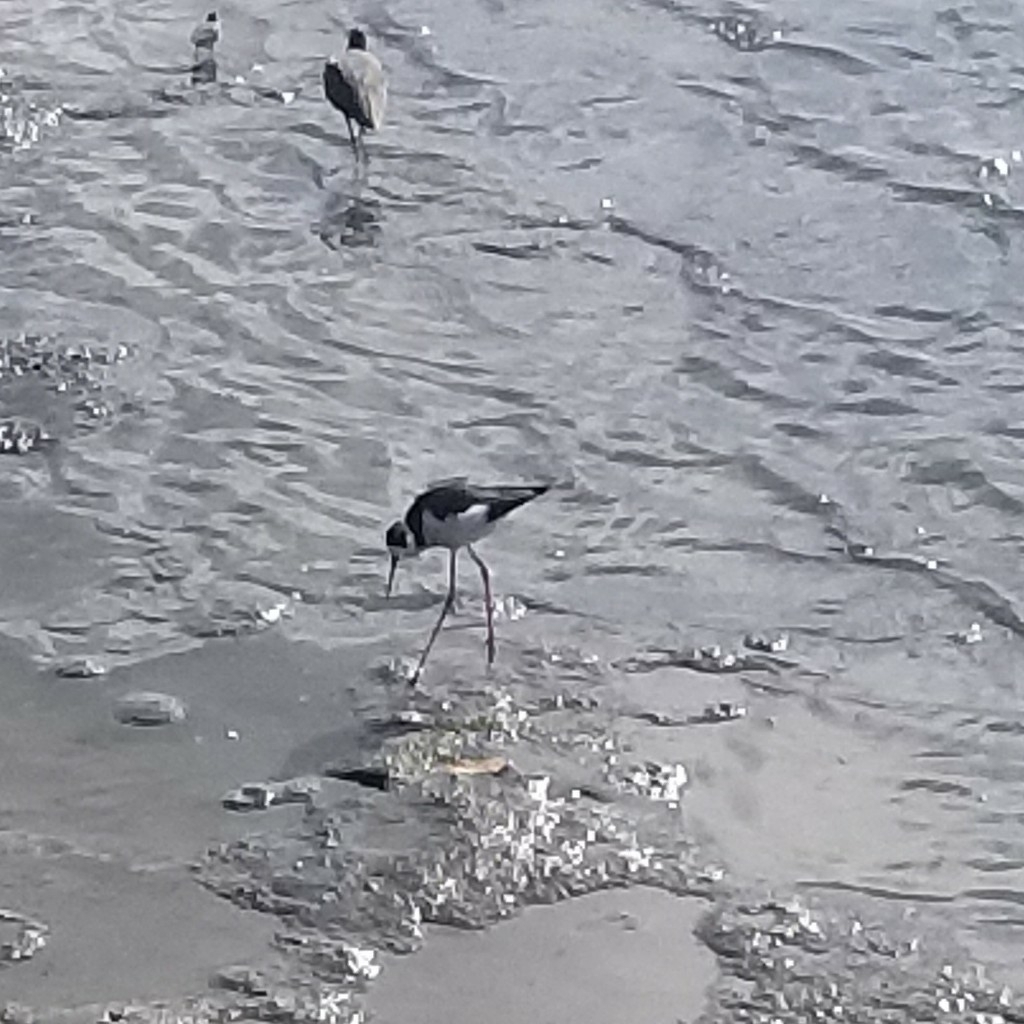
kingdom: Animalia
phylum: Chordata
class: Aves
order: Charadriiformes
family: Recurvirostridae
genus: Himantopus
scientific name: Himantopus mexicanus
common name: Black-necked stilt
